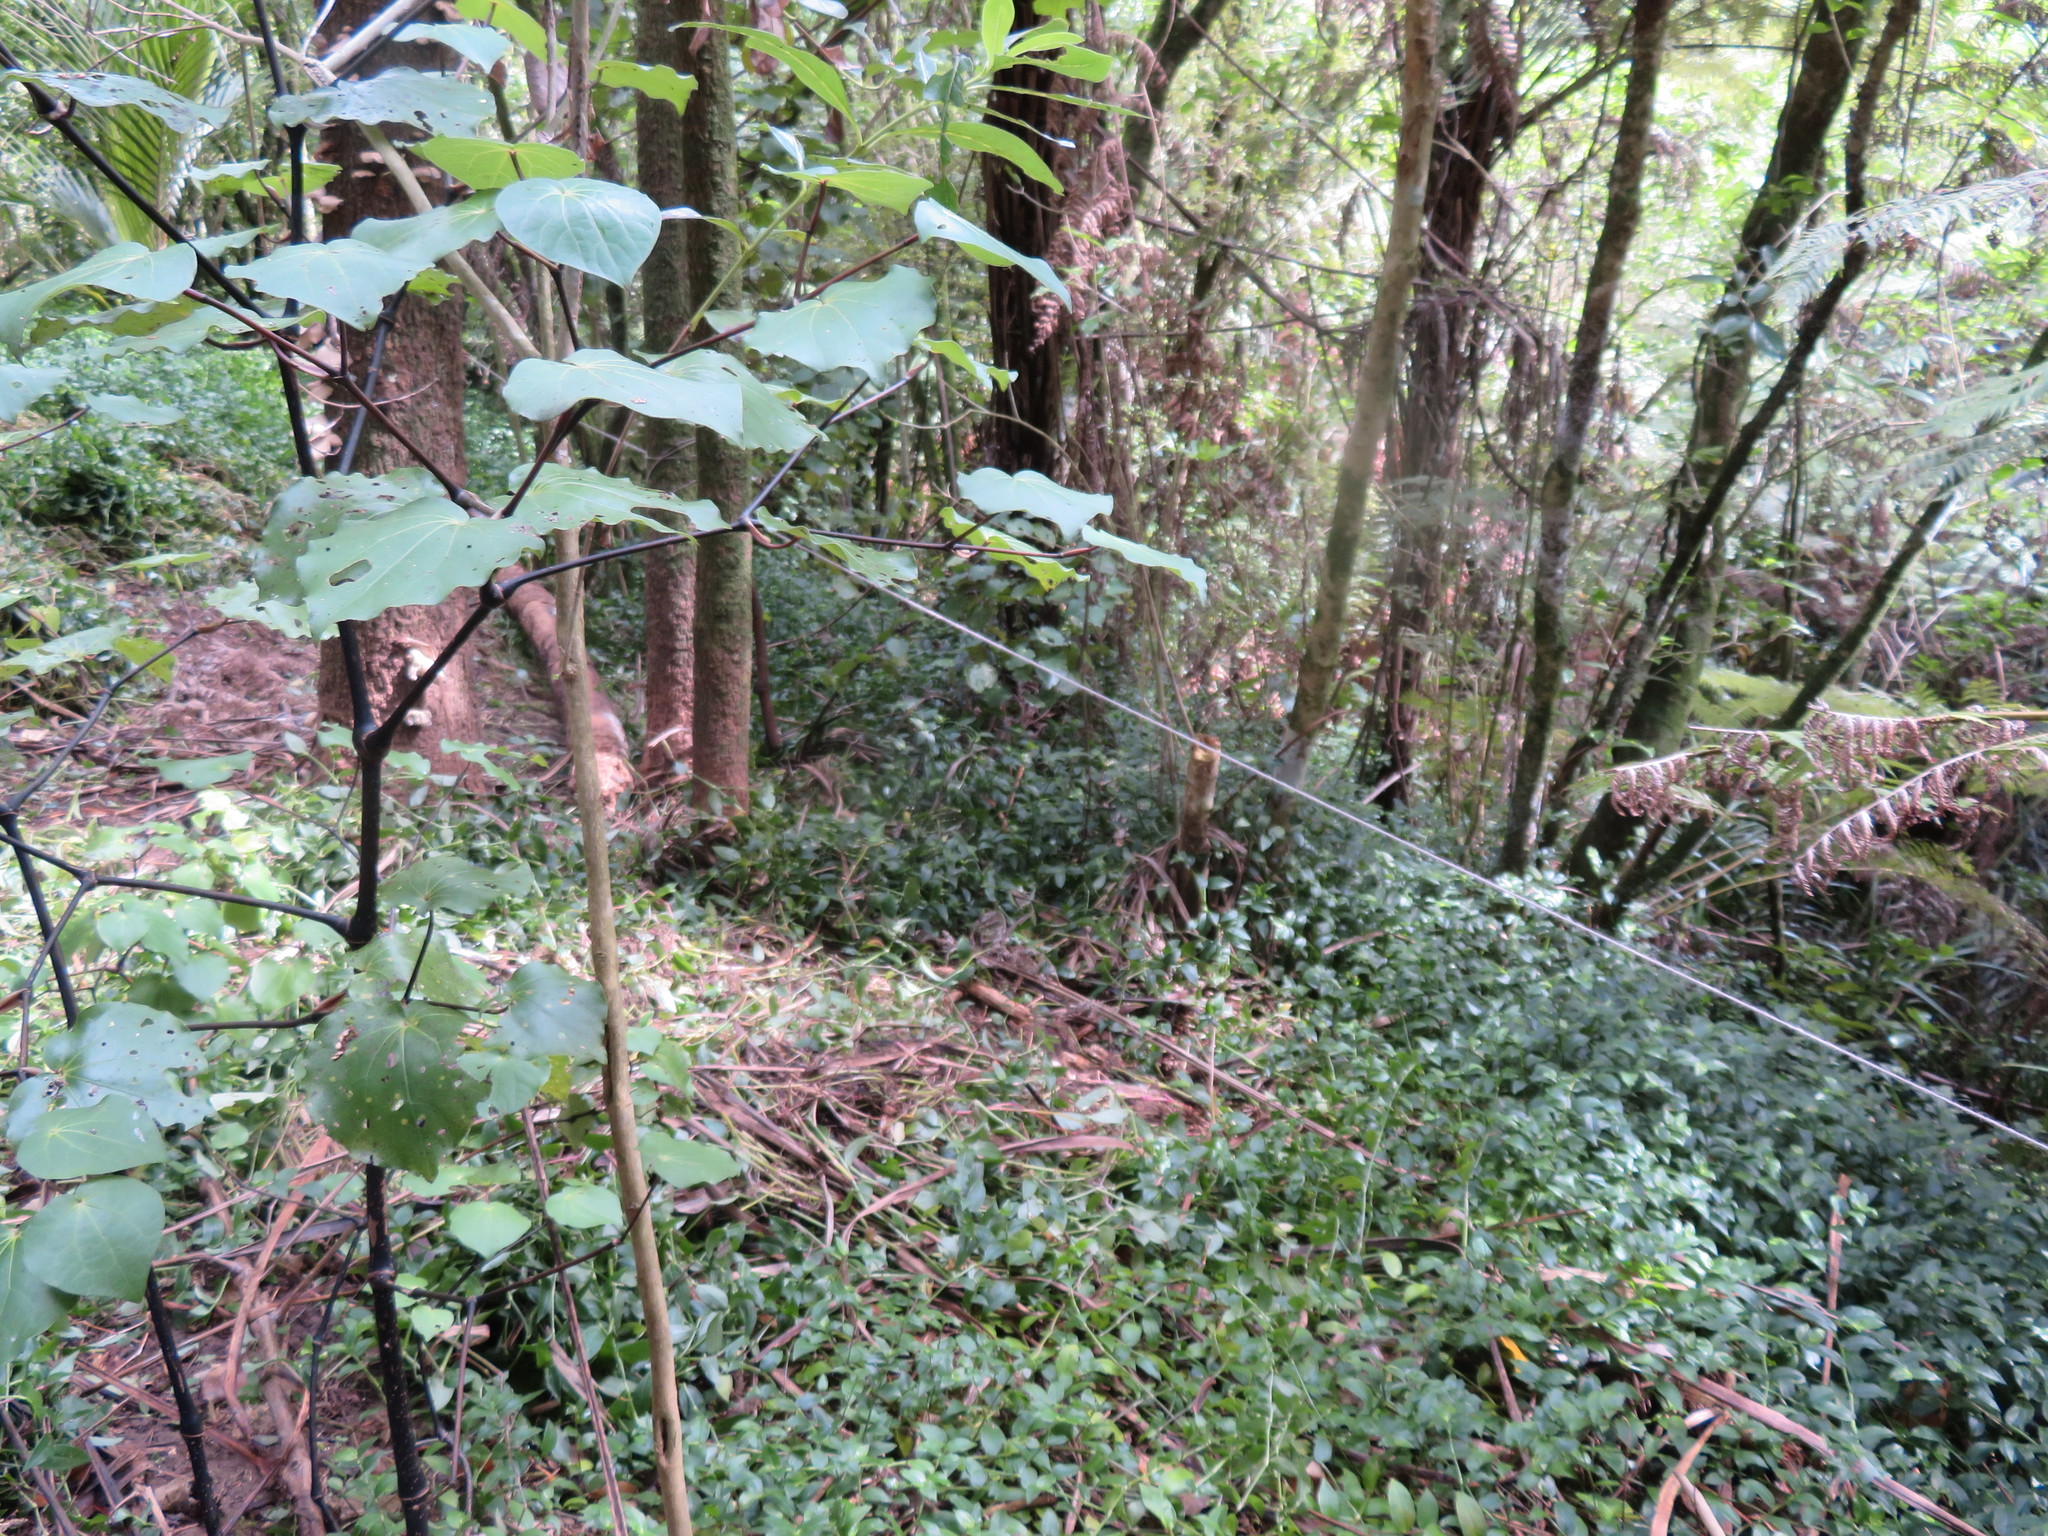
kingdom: Plantae
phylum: Tracheophyta
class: Magnoliopsida
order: Piperales
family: Piperaceae
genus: Macropiper
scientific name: Macropiper excelsum
